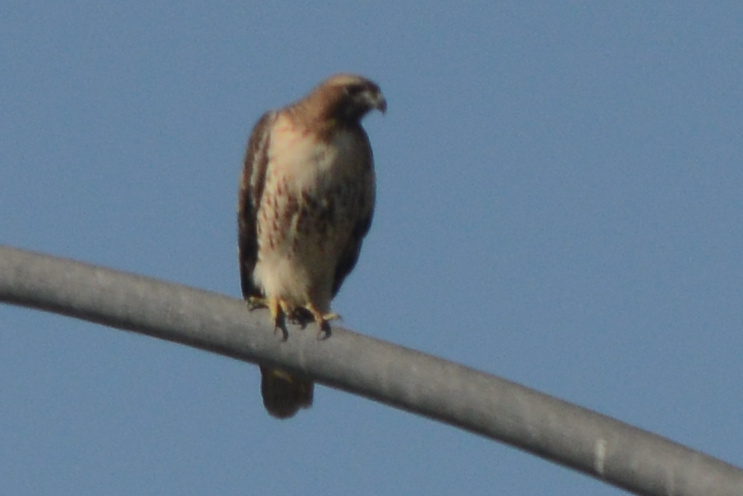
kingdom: Animalia
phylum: Chordata
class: Aves
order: Accipitriformes
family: Accipitridae
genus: Buteo
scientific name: Buteo jamaicensis
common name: Red-tailed hawk
